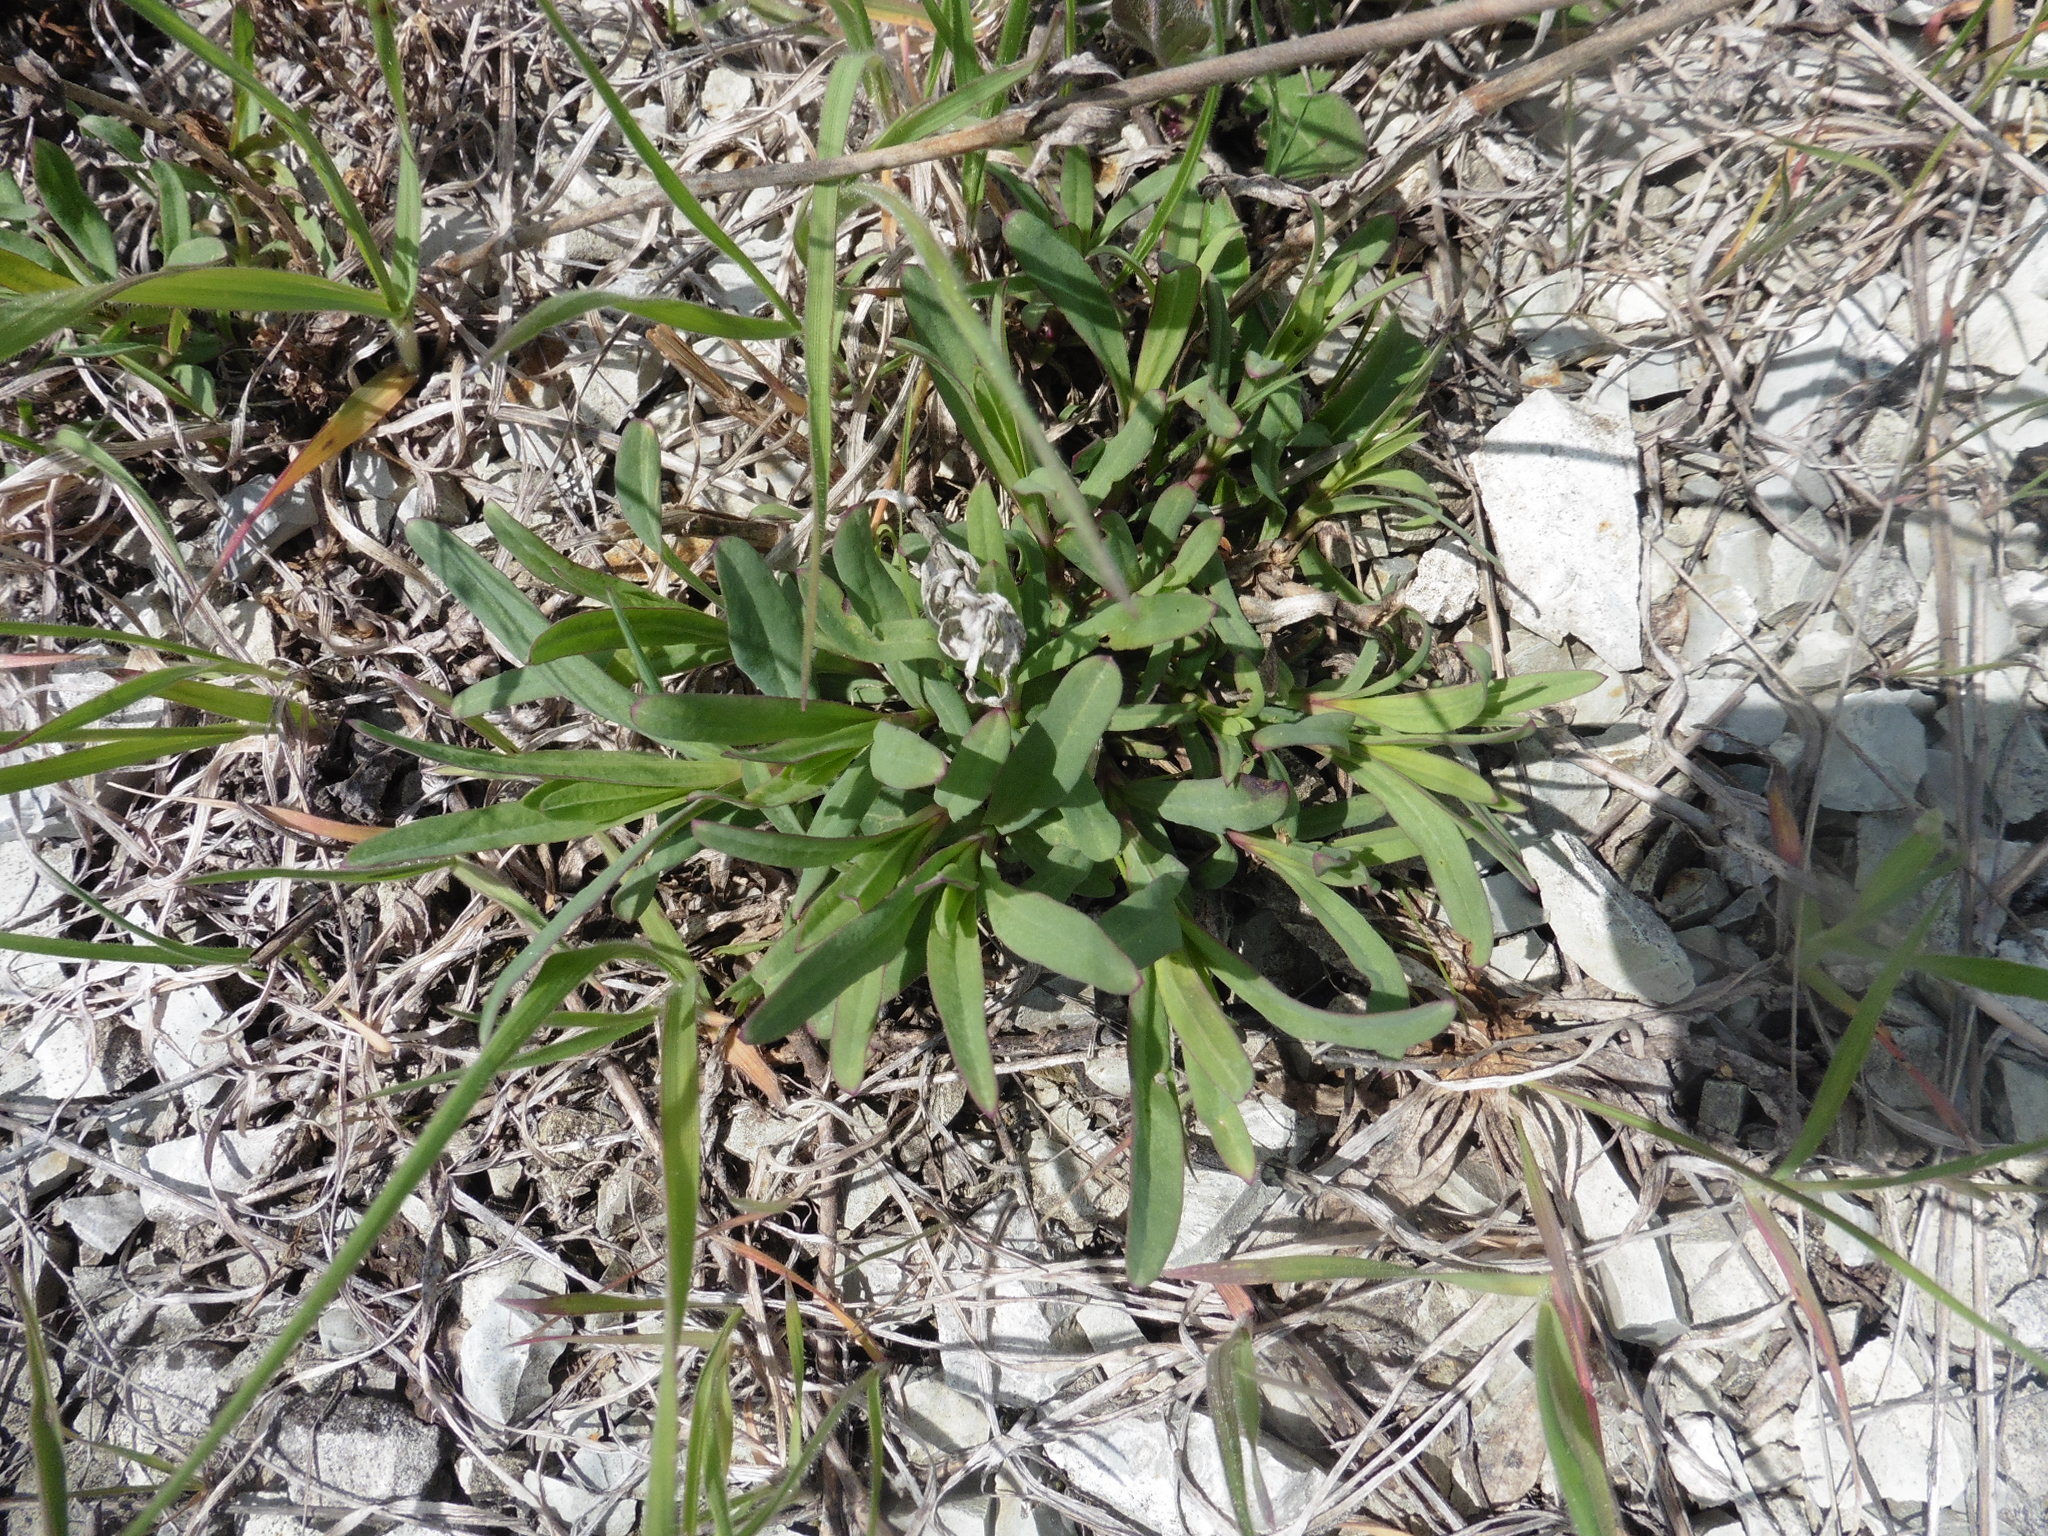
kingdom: Plantae
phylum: Tracheophyta
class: Magnoliopsida
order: Caryophyllales
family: Caryophyllaceae
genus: Gypsophila
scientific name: Gypsophila altissima
